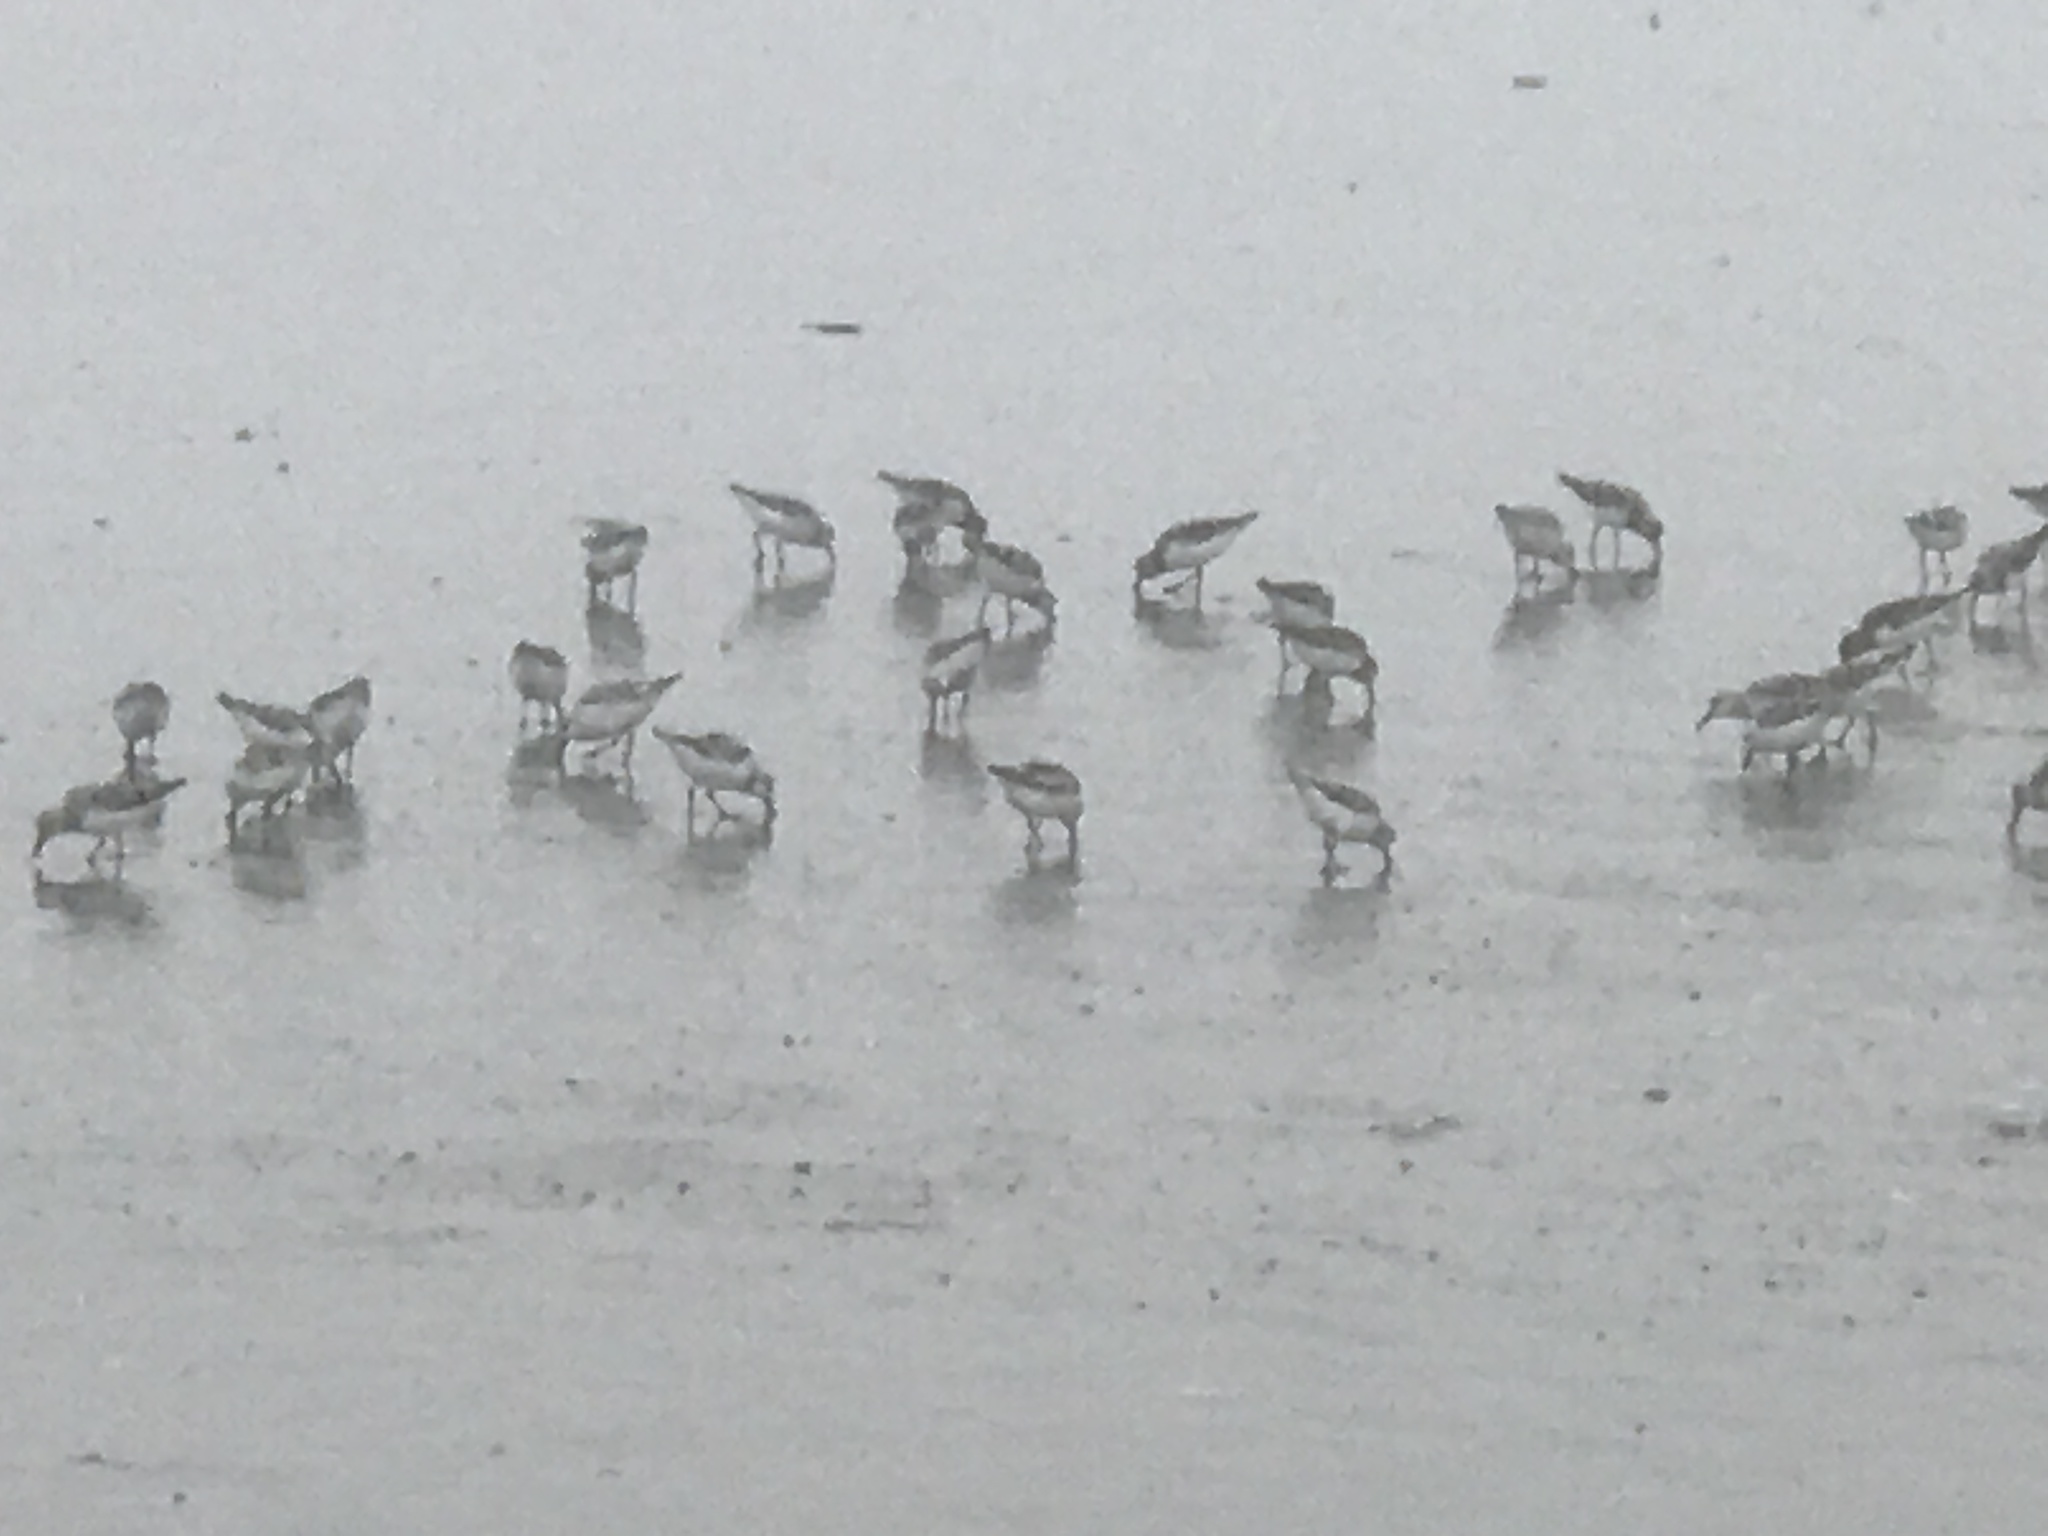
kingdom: Animalia
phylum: Chordata
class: Aves
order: Charadriiformes
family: Scolopacidae
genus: Calidris
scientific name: Calidris alba
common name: Sanderling
